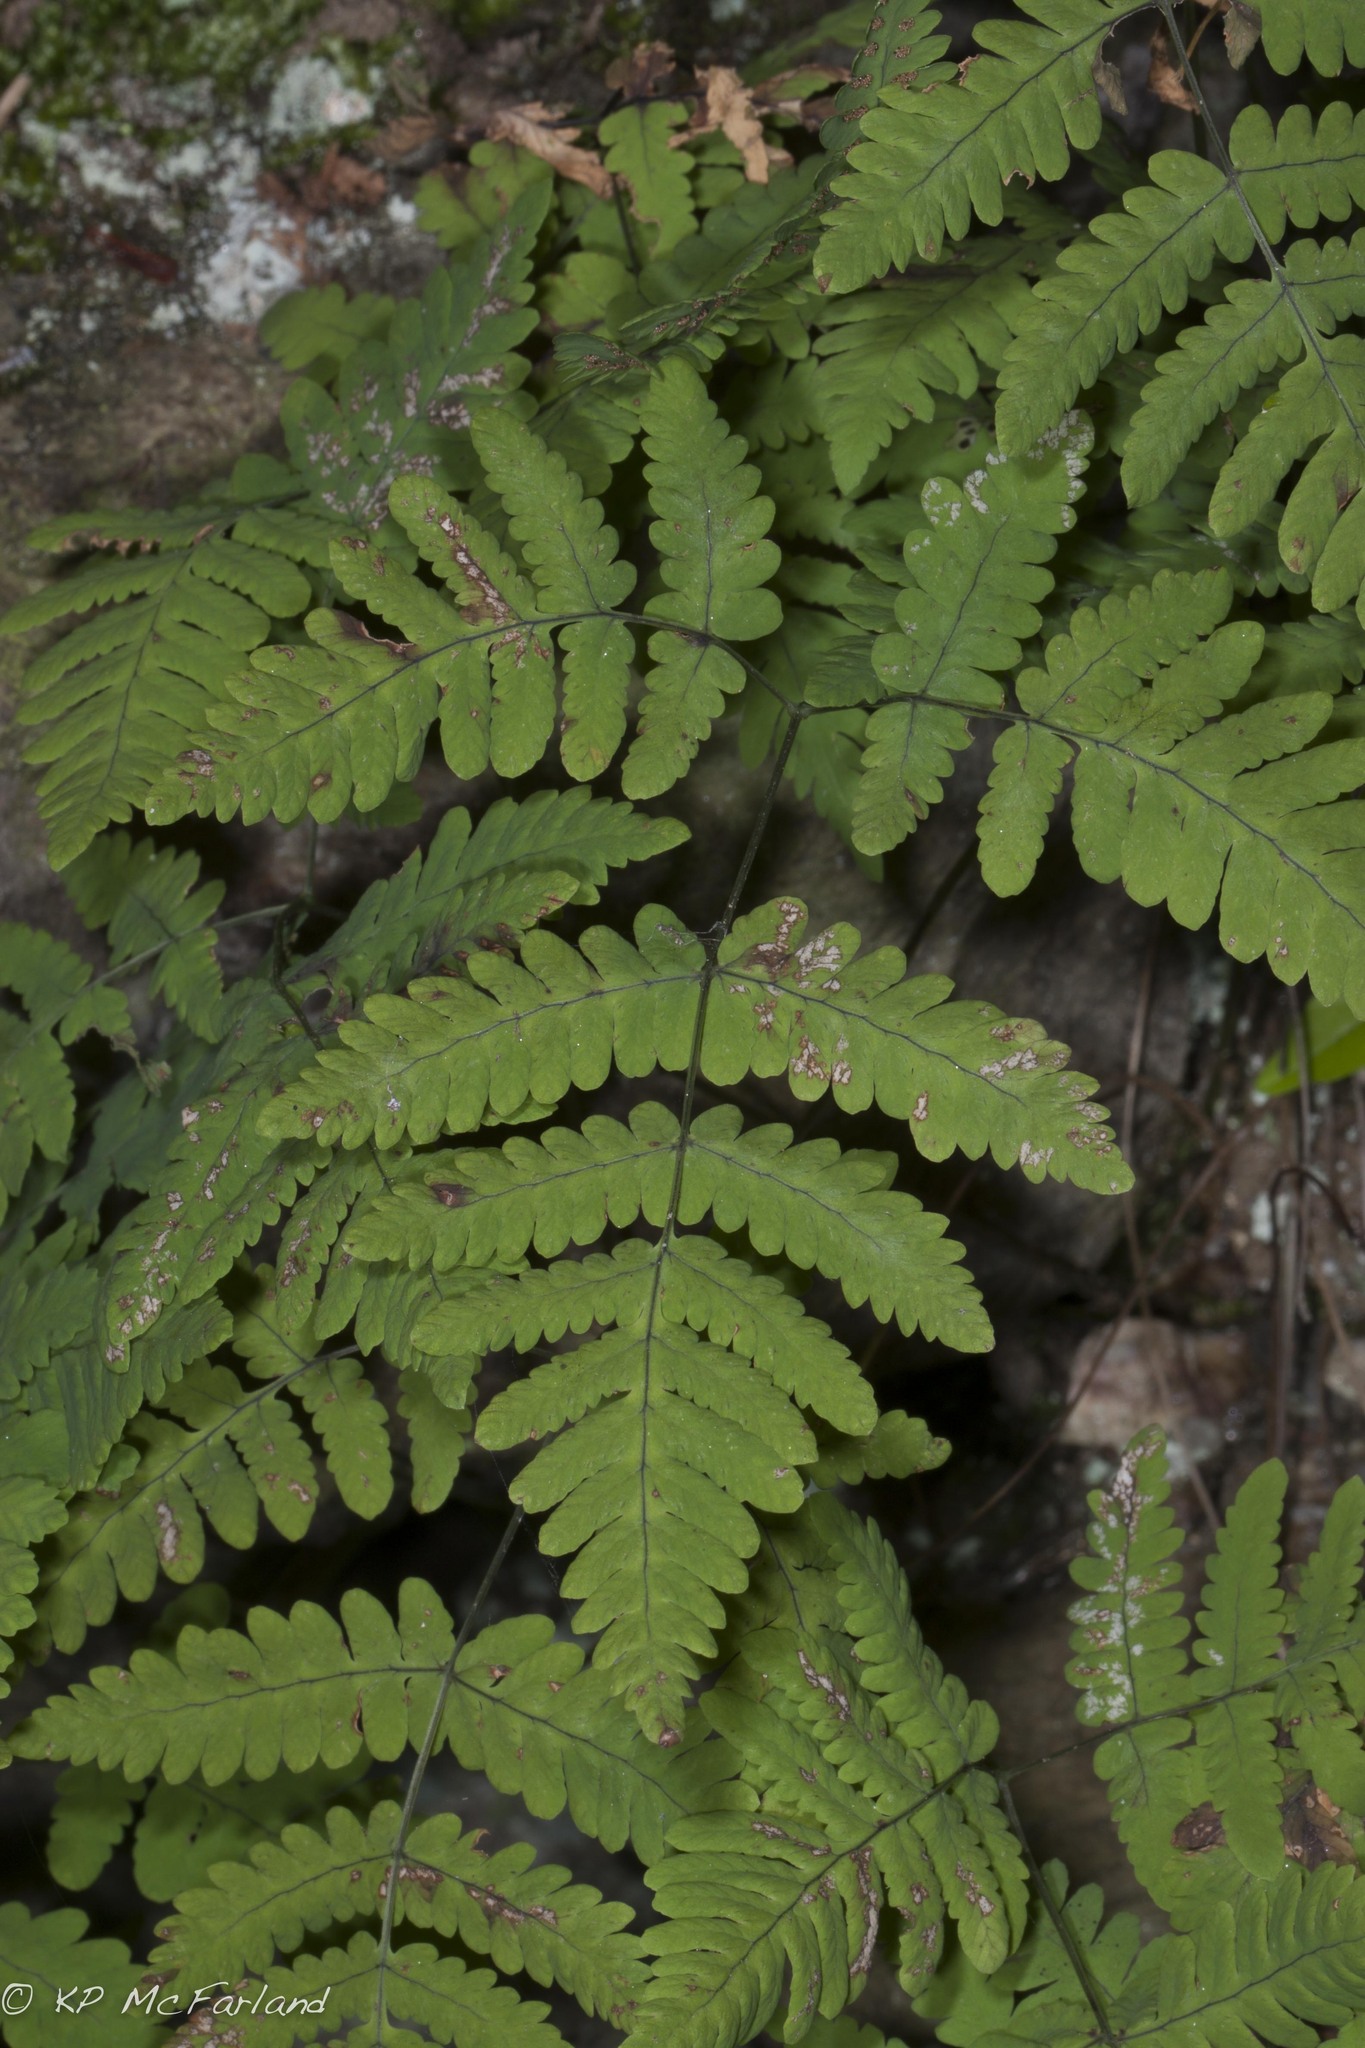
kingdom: Plantae
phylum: Tracheophyta
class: Polypodiopsida
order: Polypodiales
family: Cystopteridaceae
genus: Gymnocarpium
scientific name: Gymnocarpium dryopteris
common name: Oak fern
